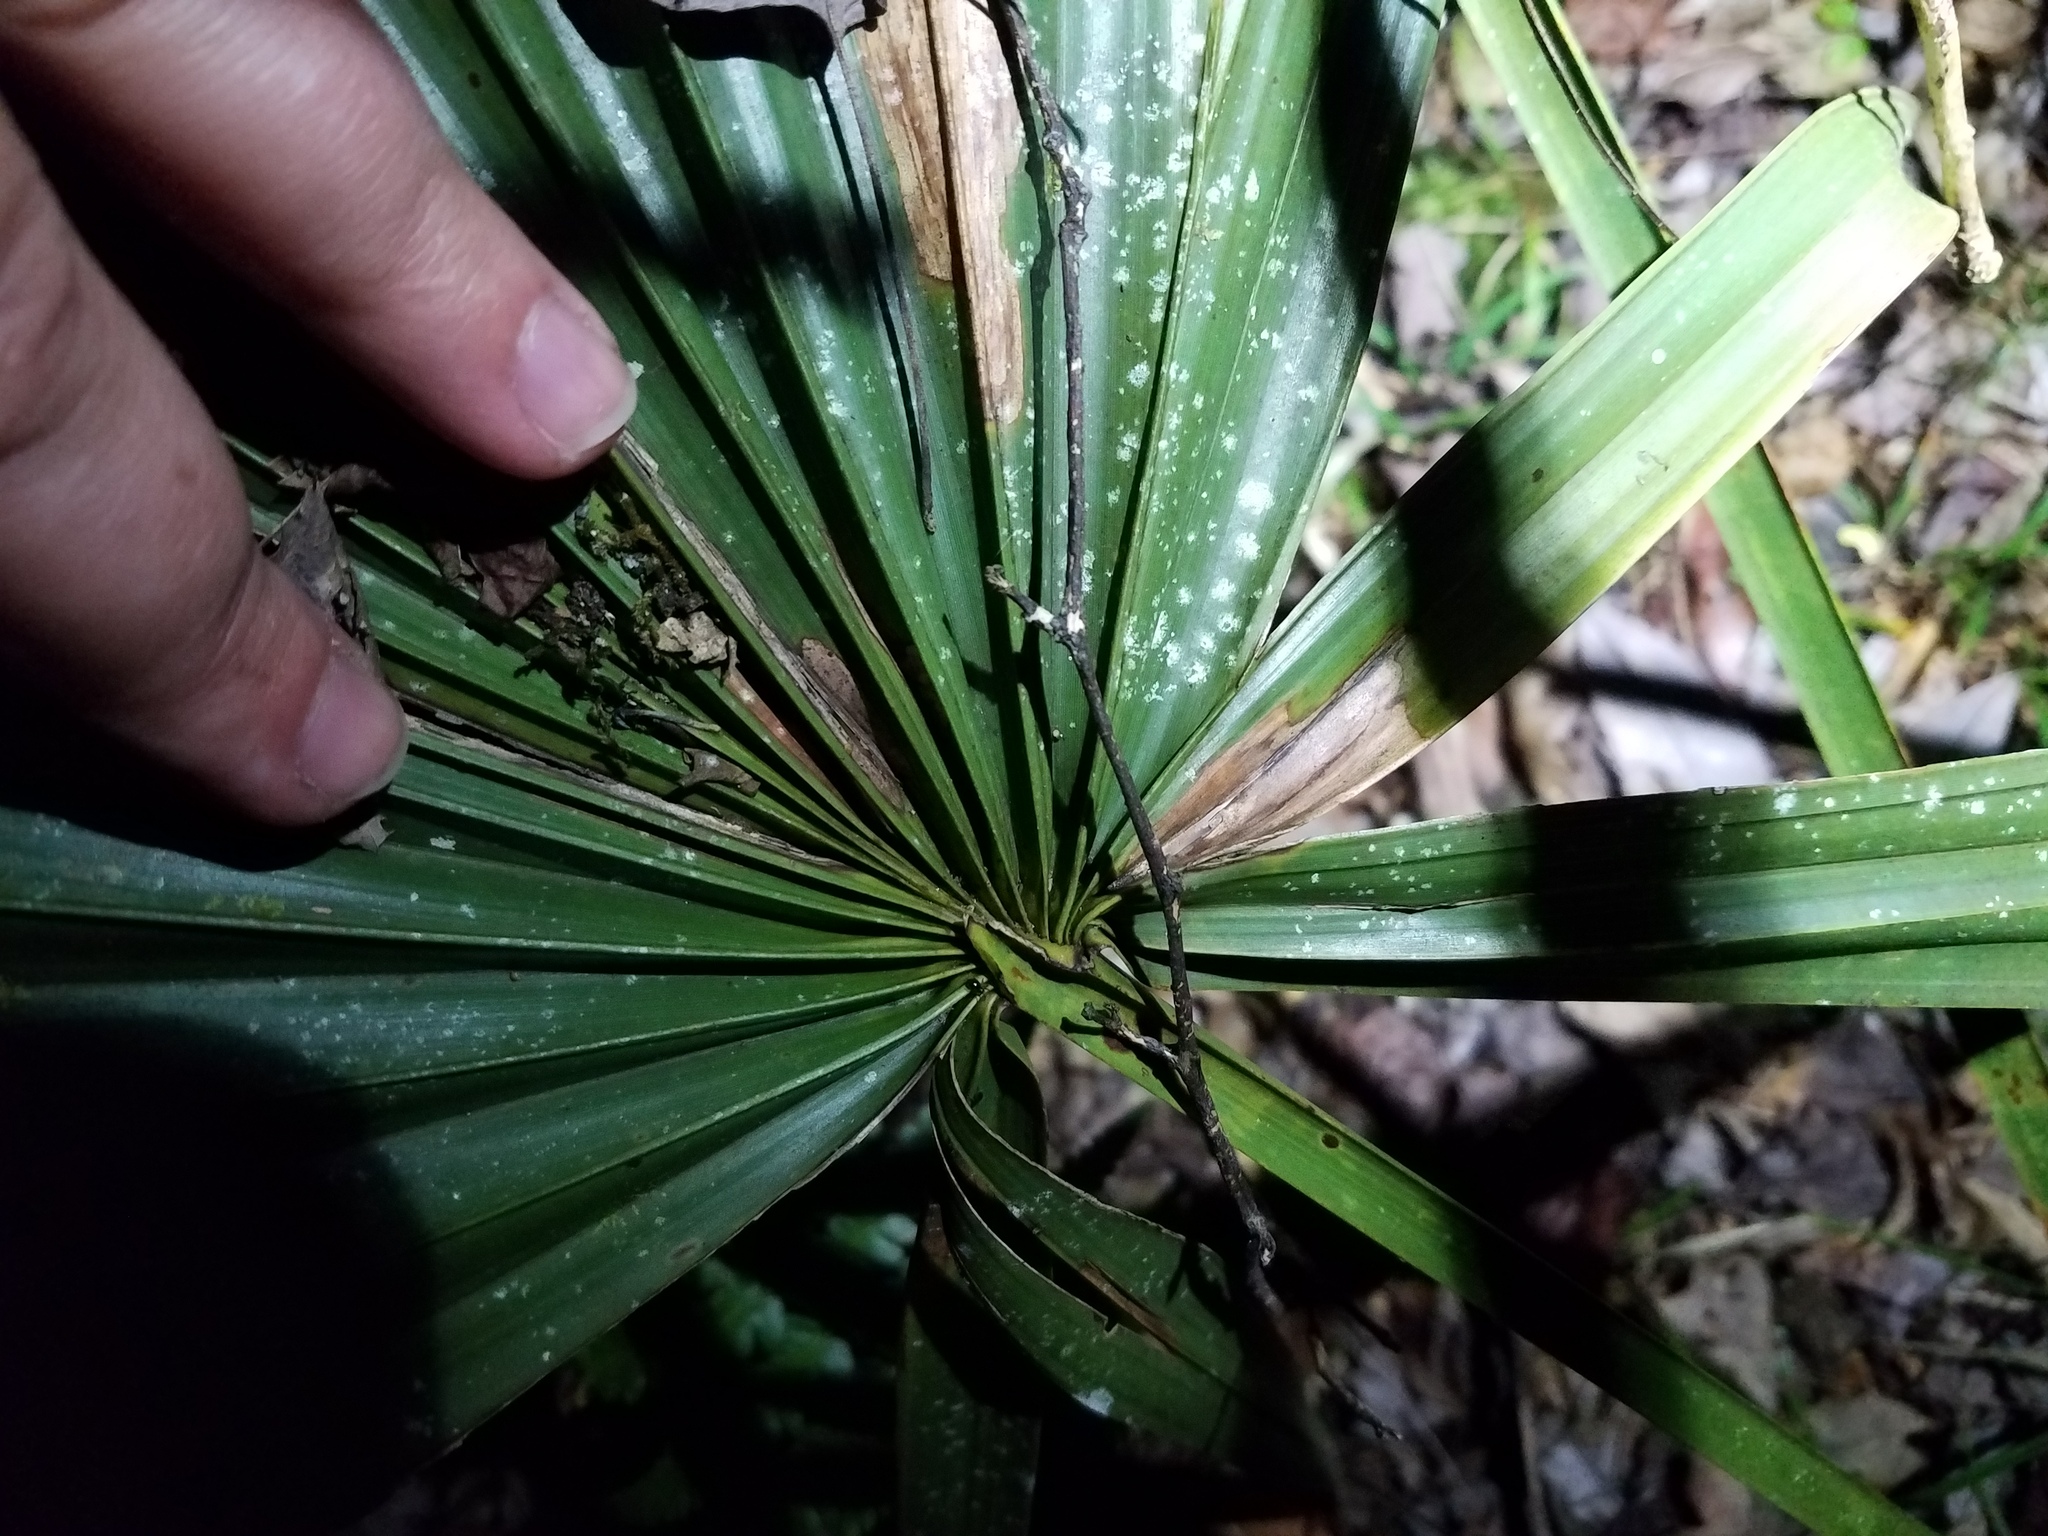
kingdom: Plantae
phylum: Tracheophyta
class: Liliopsida
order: Arecales
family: Arecaceae
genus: Sabal
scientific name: Sabal minor
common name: Dwarf palmetto
